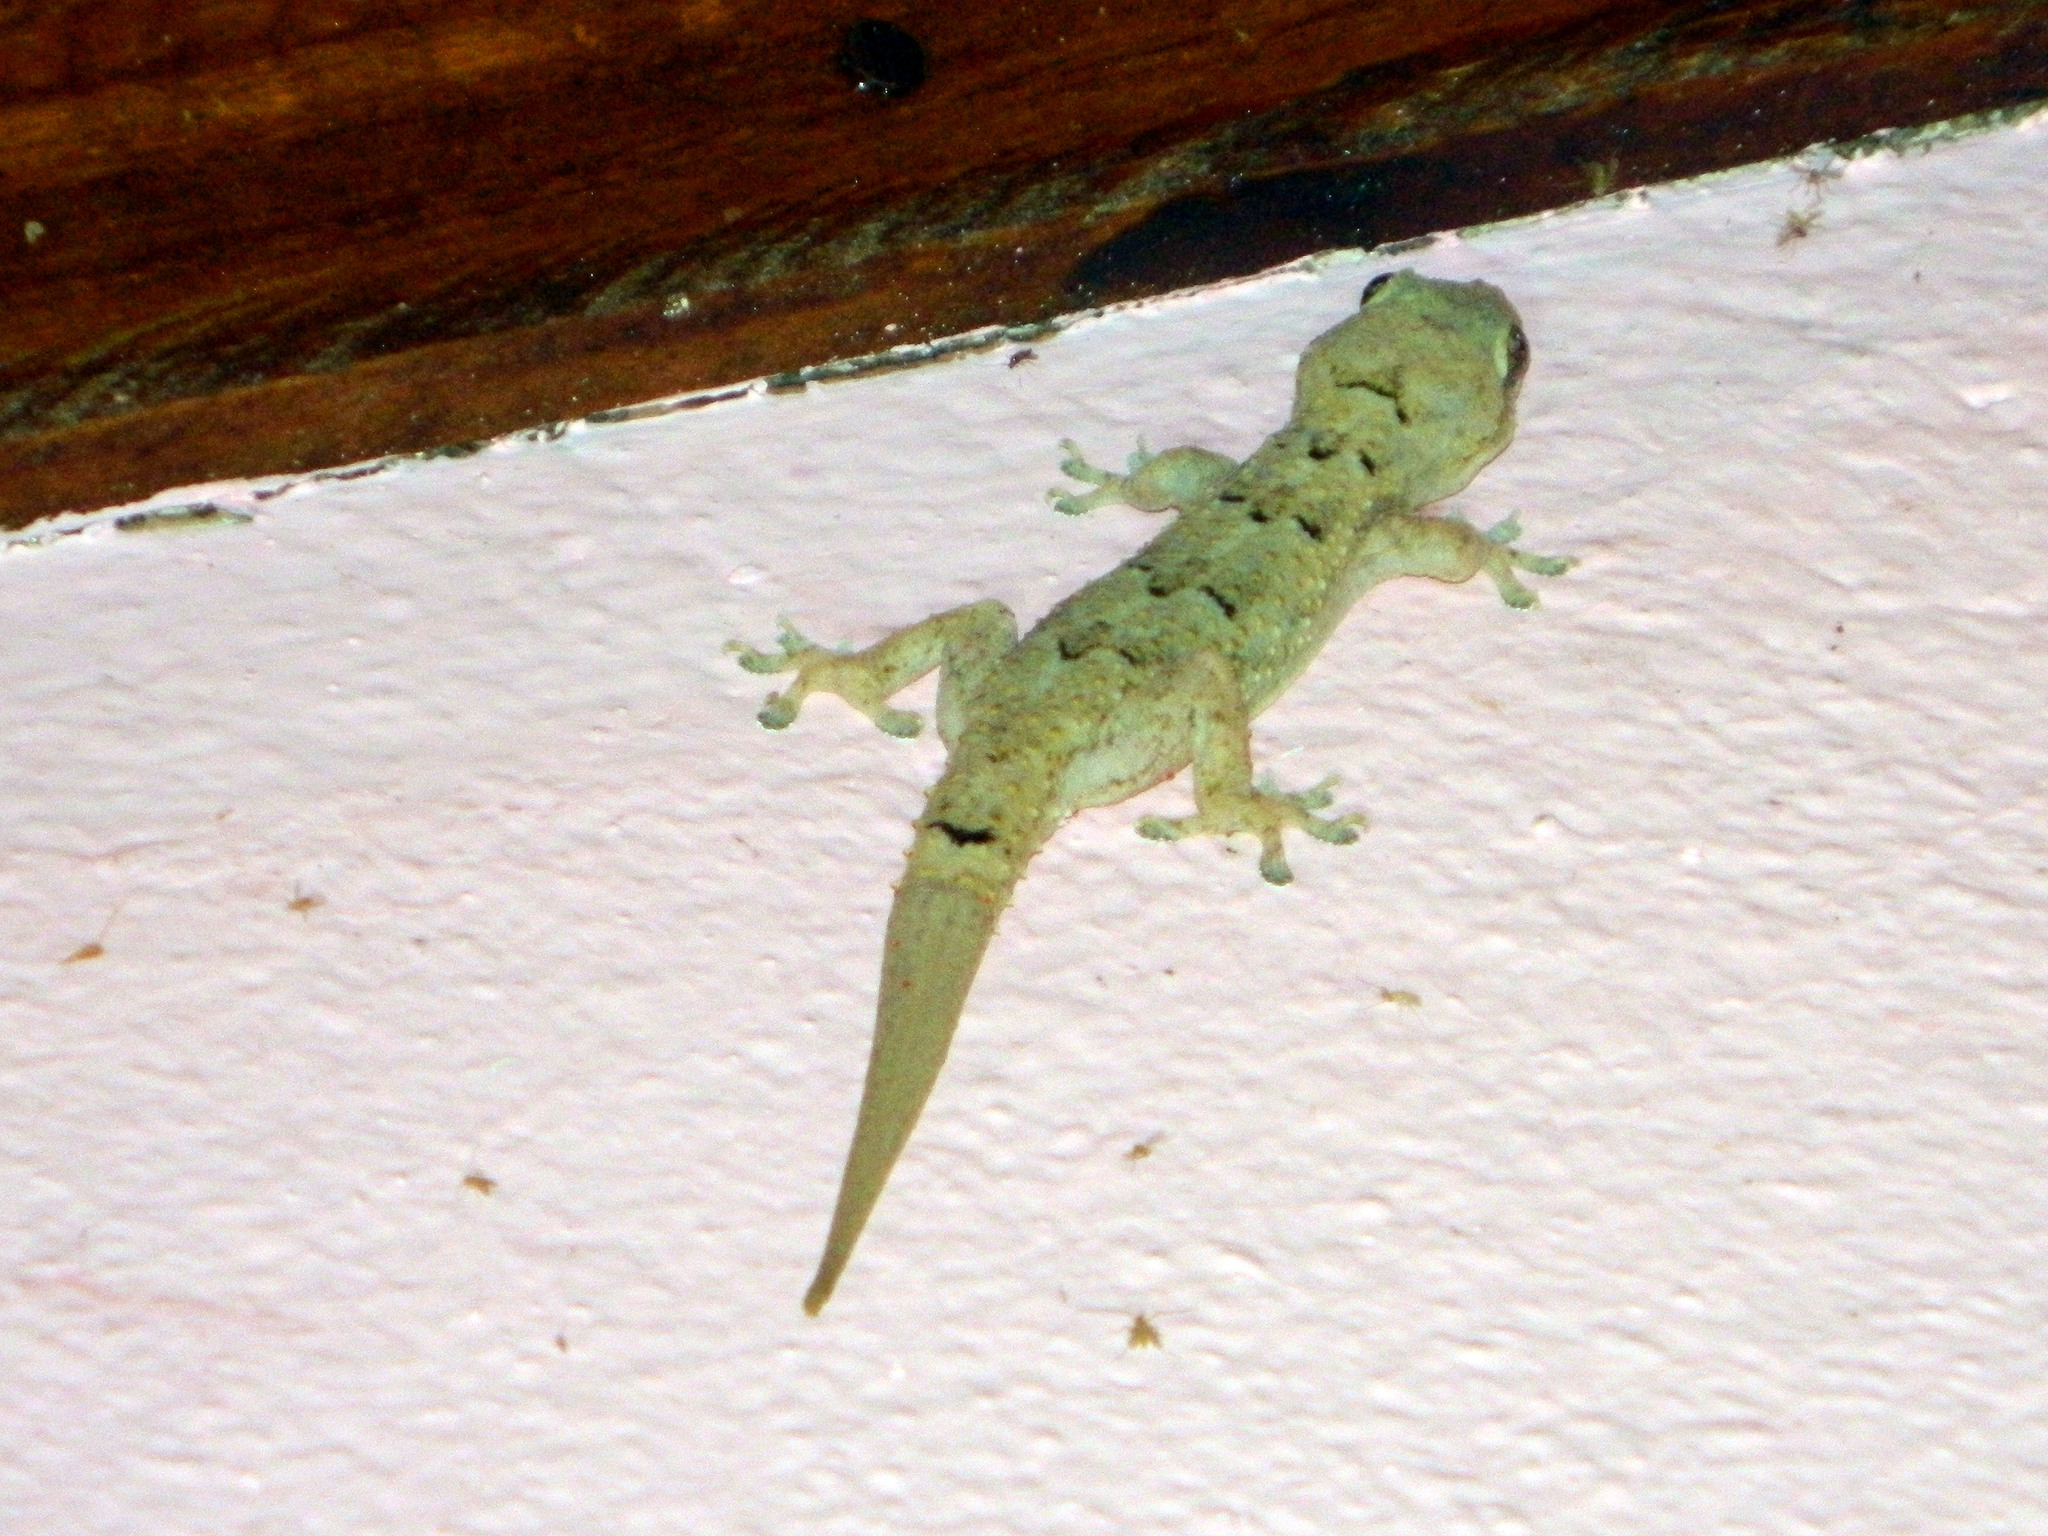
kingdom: Animalia
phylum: Chordata
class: Squamata
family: Gekkonidae
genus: Hemidactylus
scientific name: Hemidactylus mercatorius
